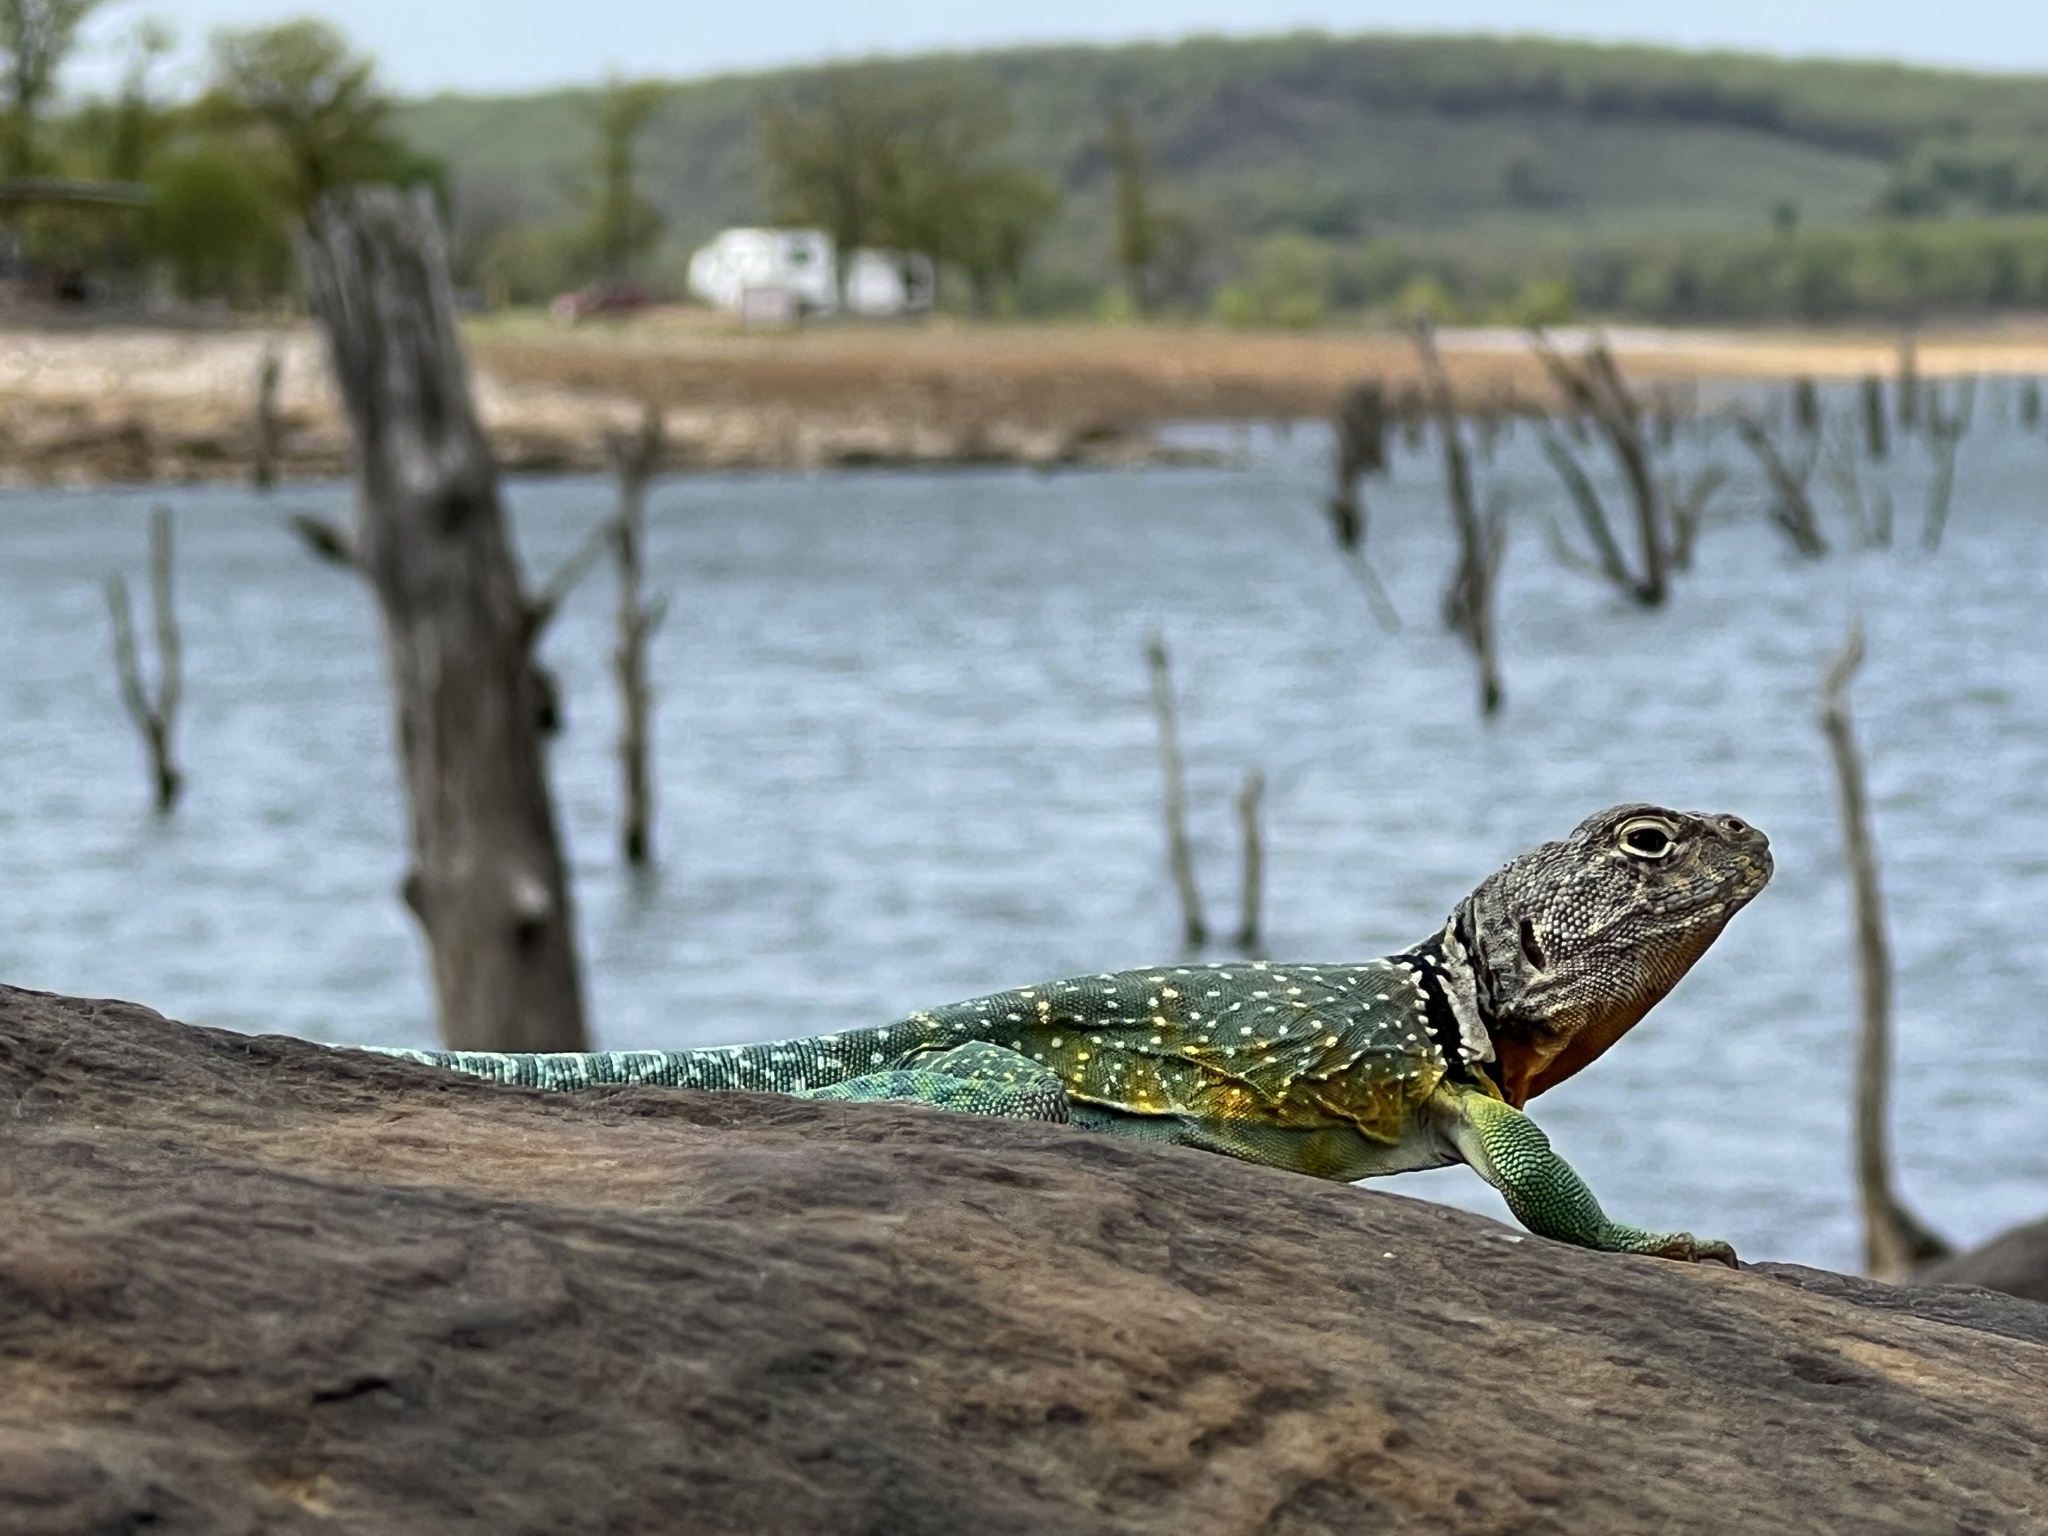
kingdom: Animalia
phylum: Chordata
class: Squamata
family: Crotaphytidae
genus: Crotaphytus
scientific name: Crotaphytus collaris
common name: Collared lizard
